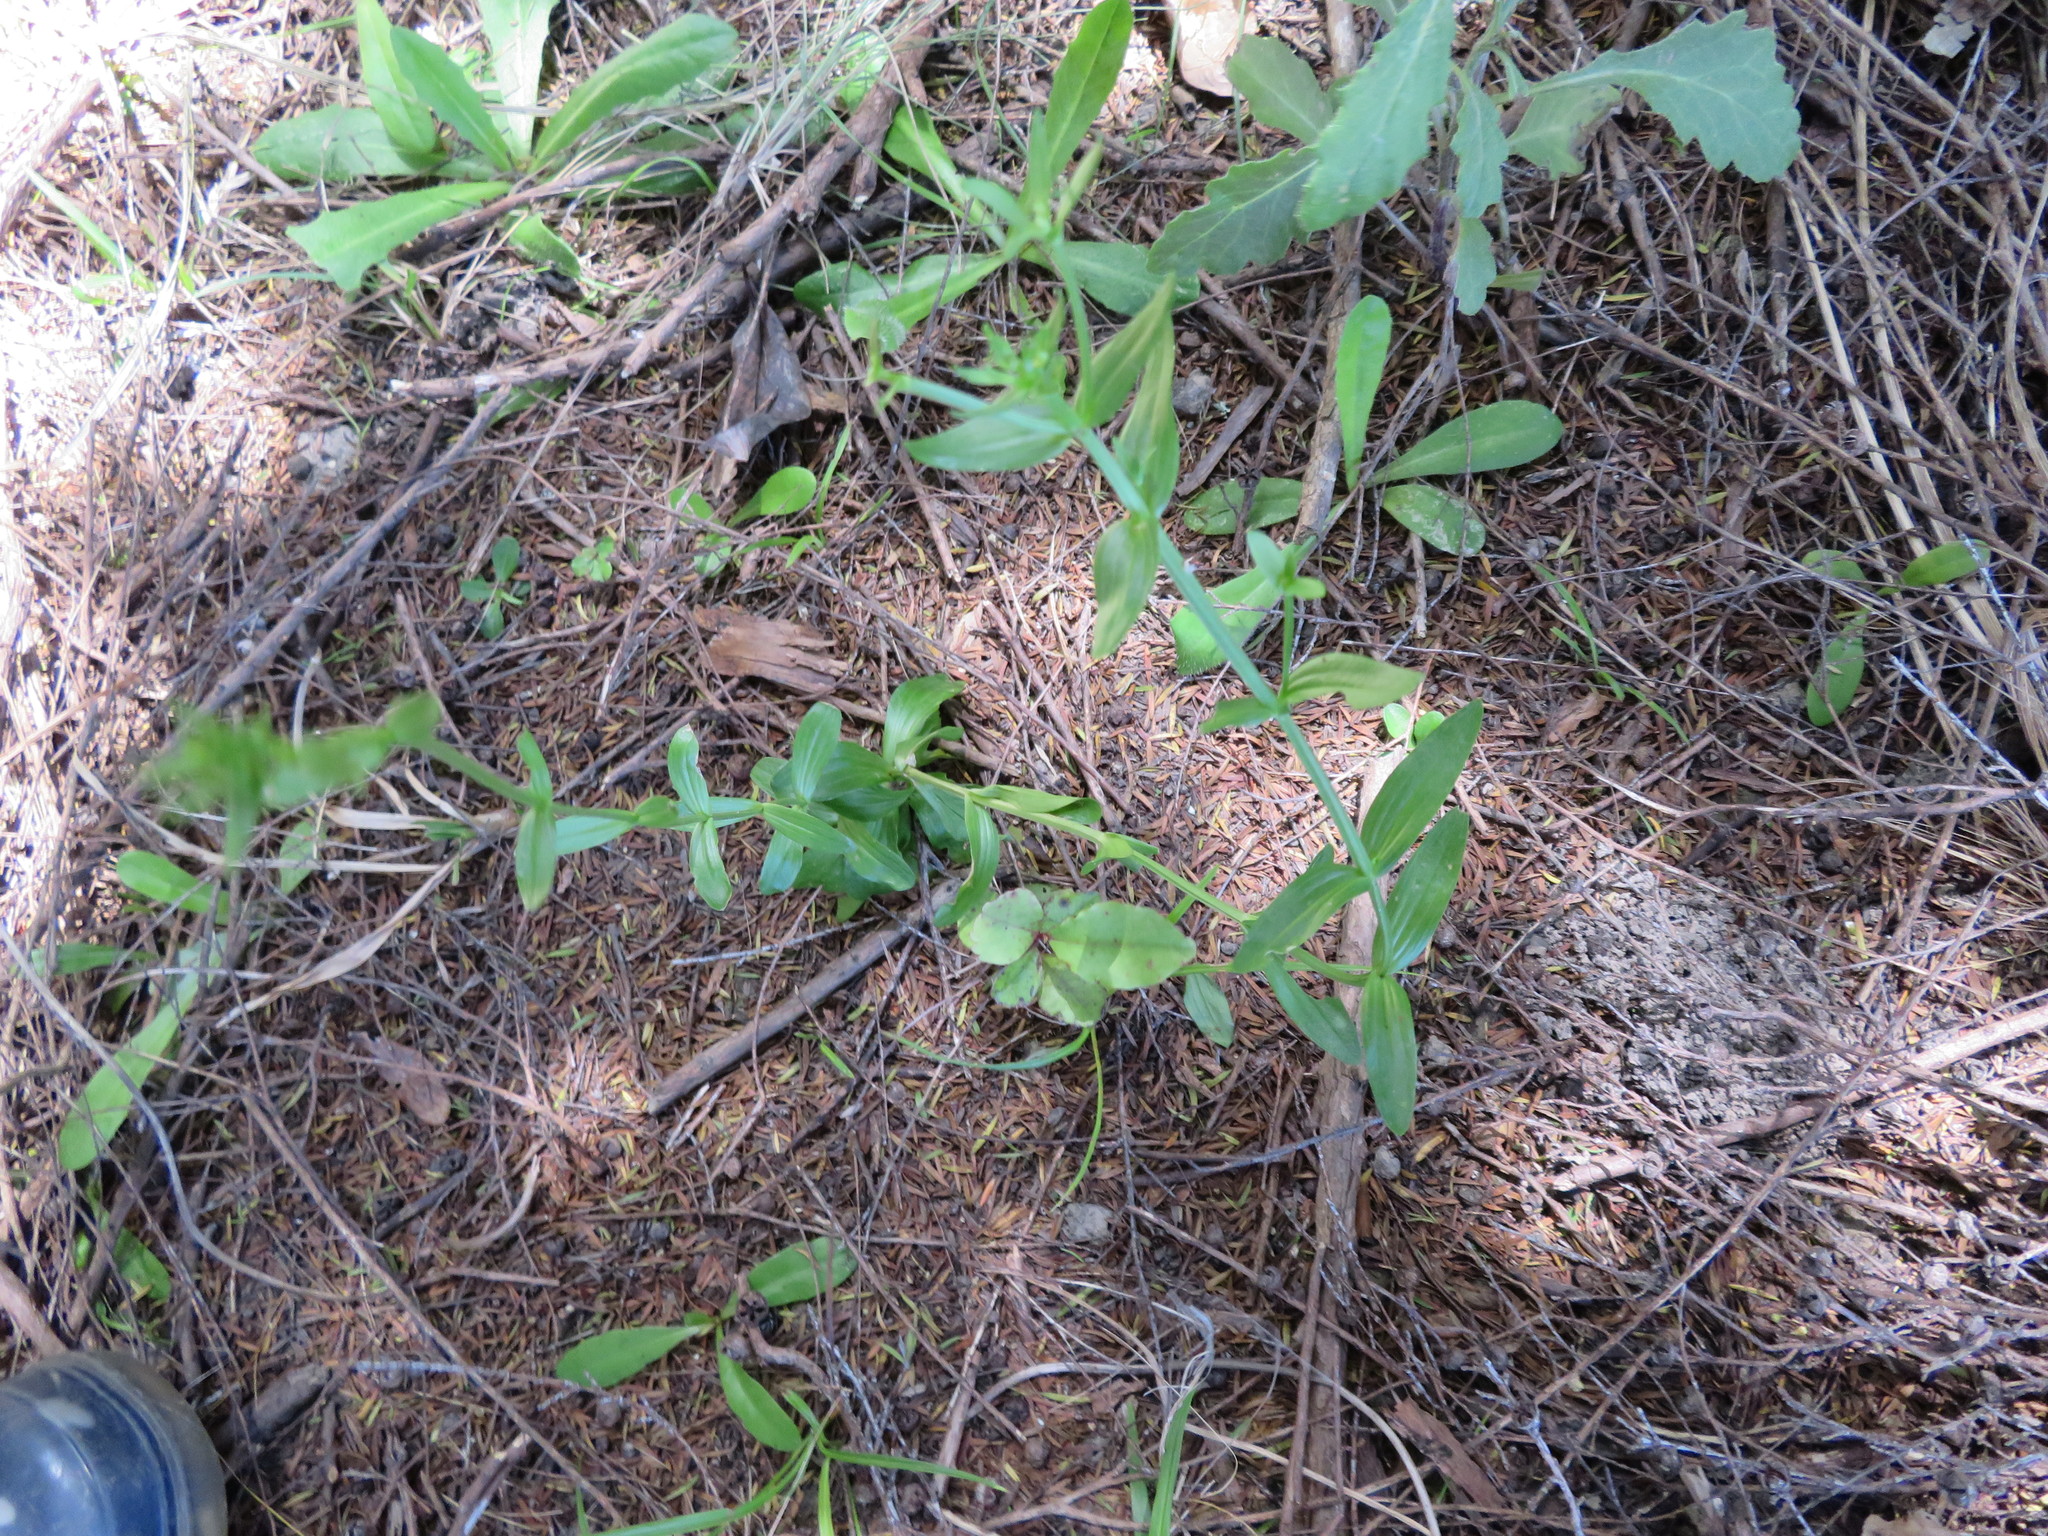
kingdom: Plantae
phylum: Tracheophyta
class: Magnoliopsida
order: Gentianales
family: Gentianaceae
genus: Centaurium
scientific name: Centaurium erythraea
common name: Common centaury
